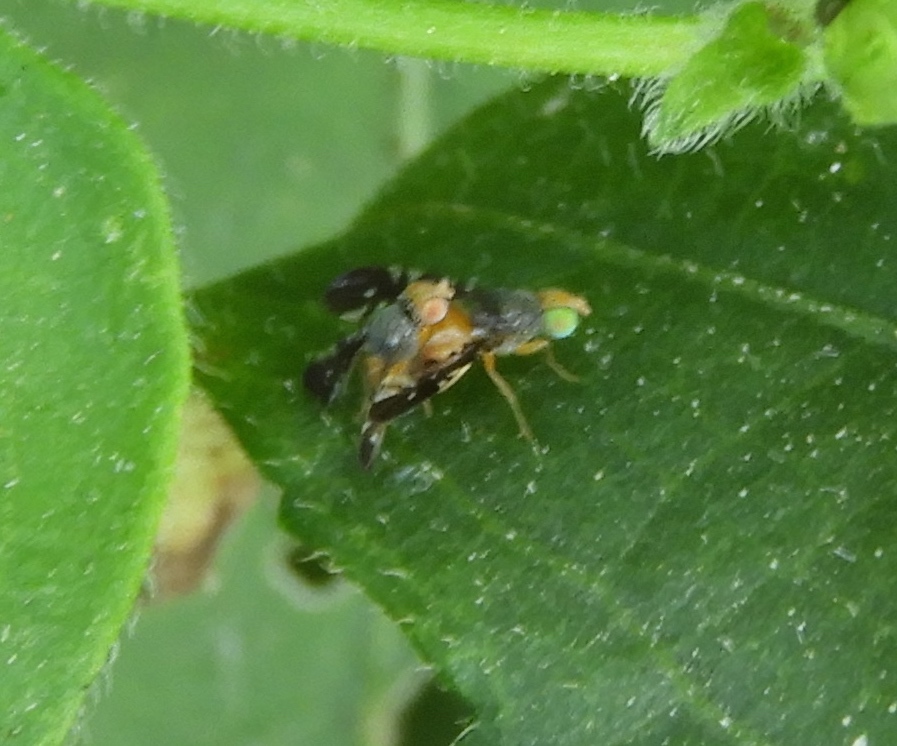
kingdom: Animalia
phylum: Arthropoda
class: Insecta
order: Diptera
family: Tephritidae
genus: Xanthaciura
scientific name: Xanthaciura
